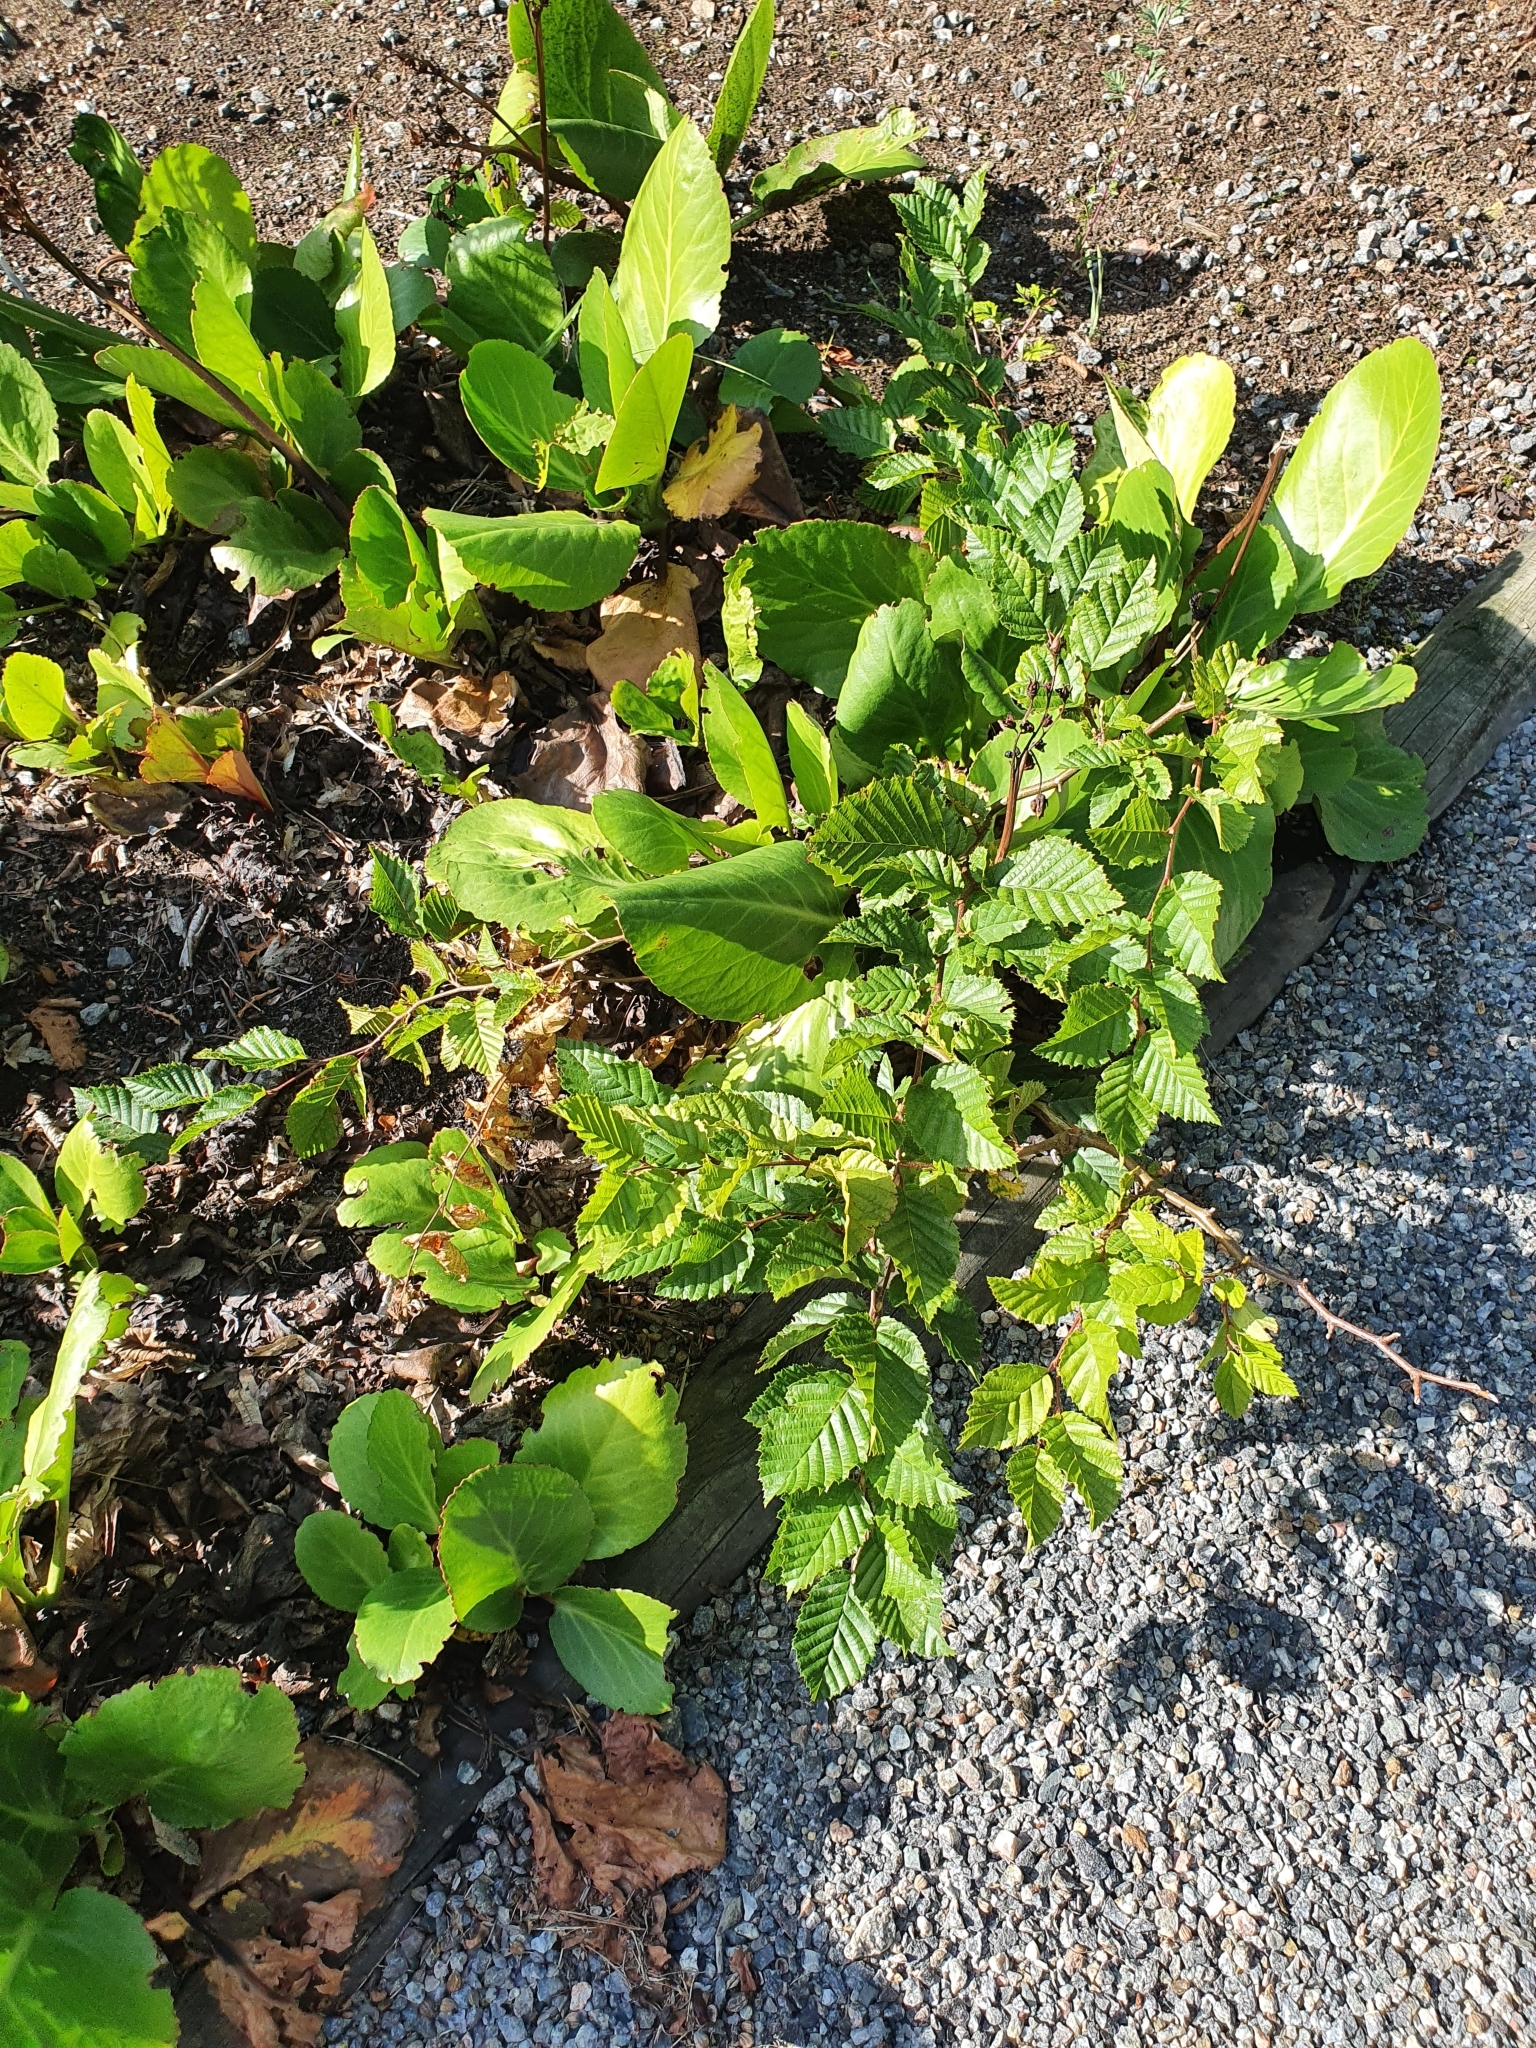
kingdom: Plantae
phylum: Tracheophyta
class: Magnoliopsida
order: Fagales
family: Betulaceae
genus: Carpinus
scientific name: Carpinus betulus
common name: Hornbeam
